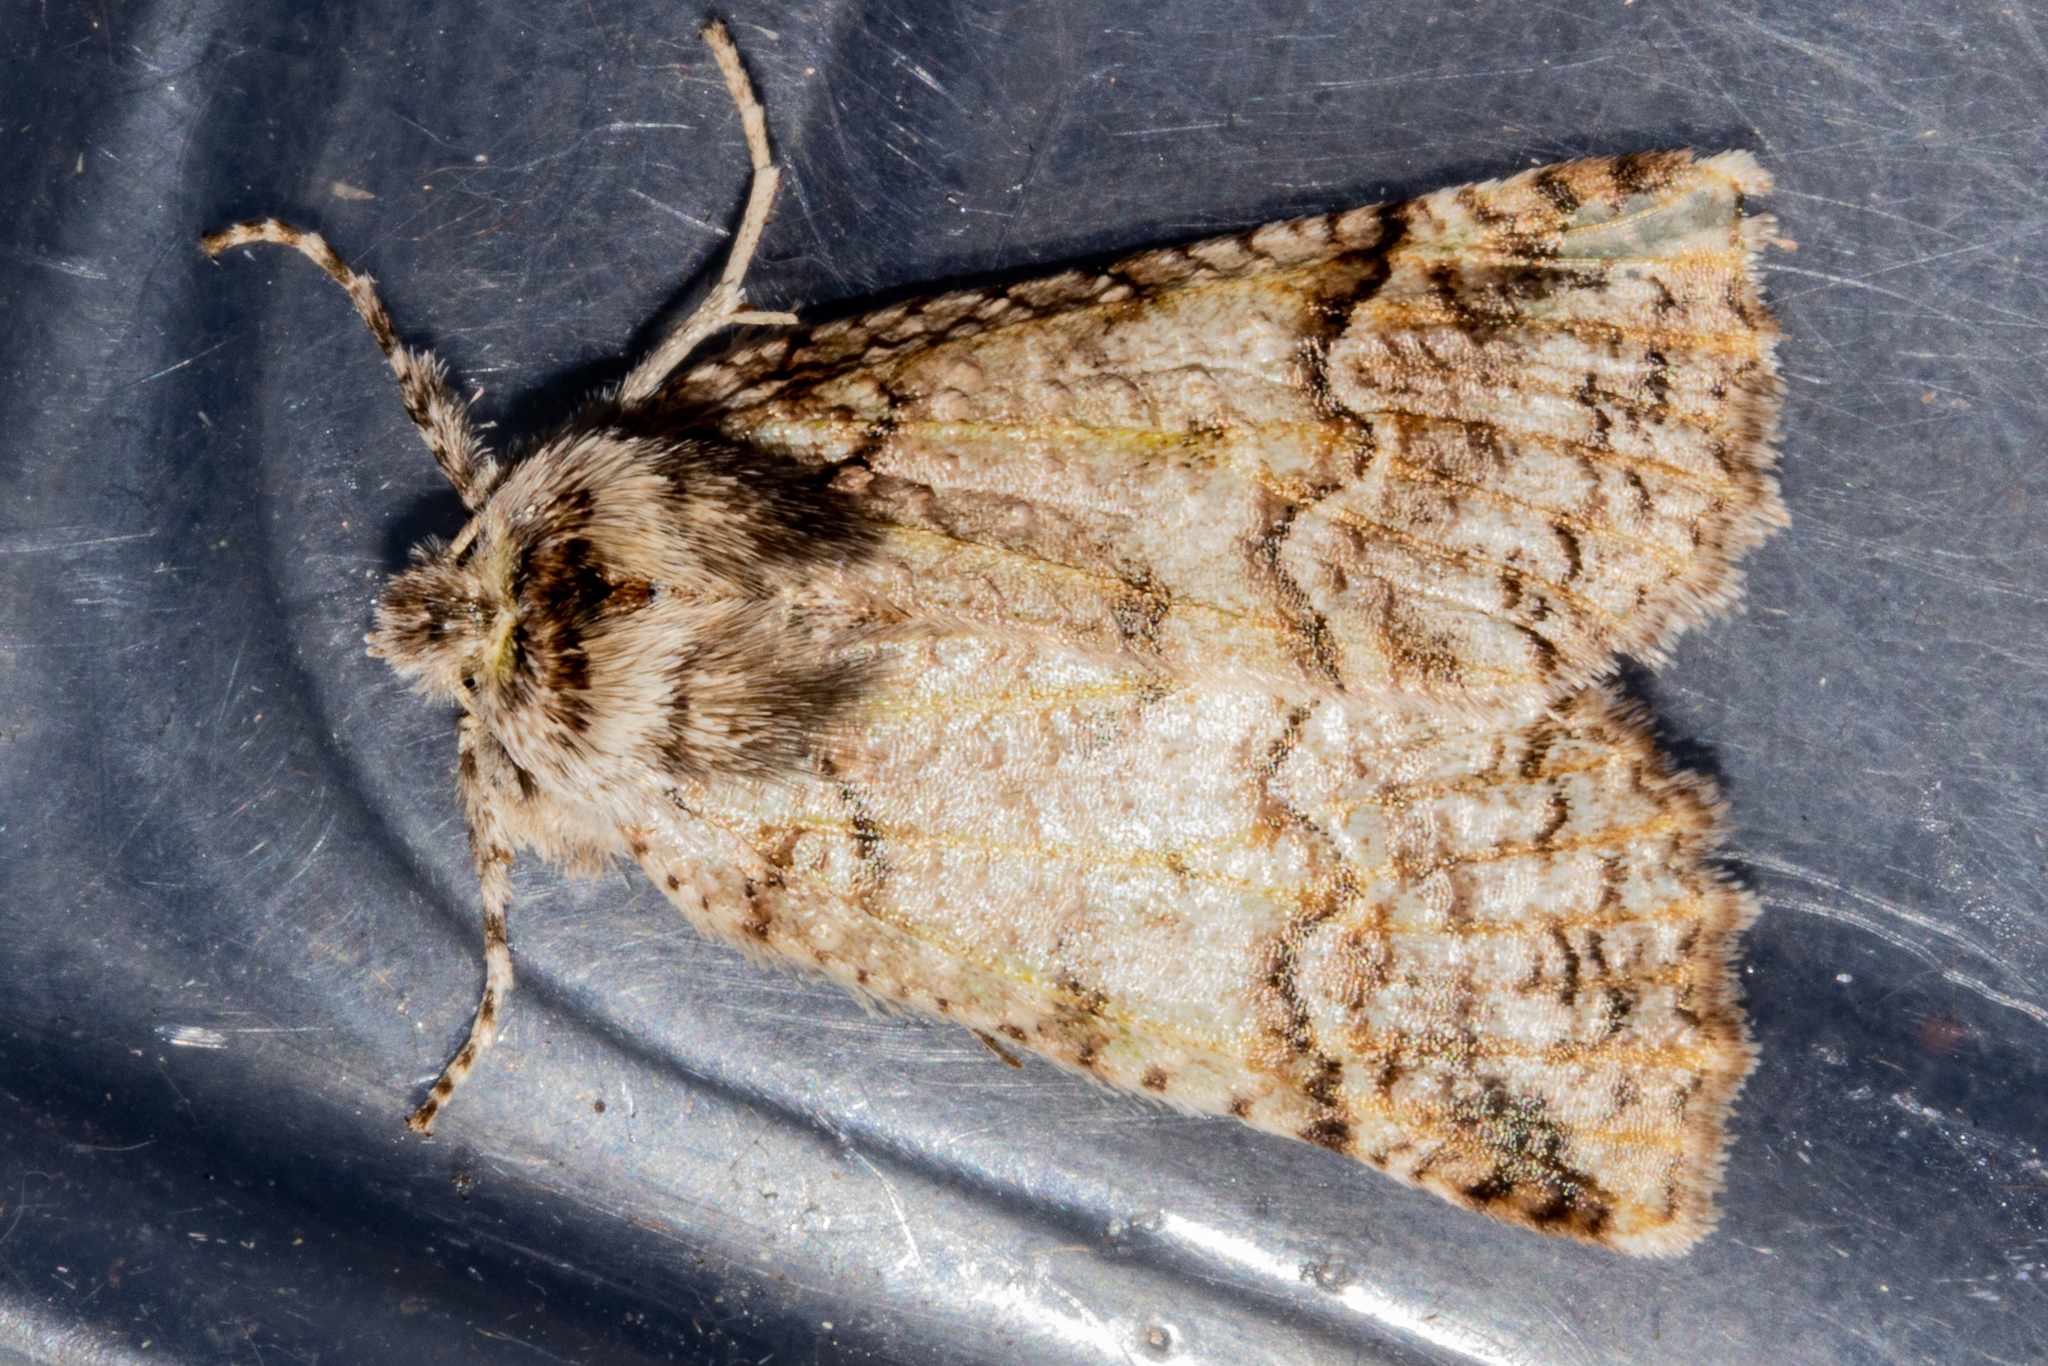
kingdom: Animalia
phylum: Arthropoda
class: Insecta
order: Lepidoptera
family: Geometridae
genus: Declana
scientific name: Declana floccosa
